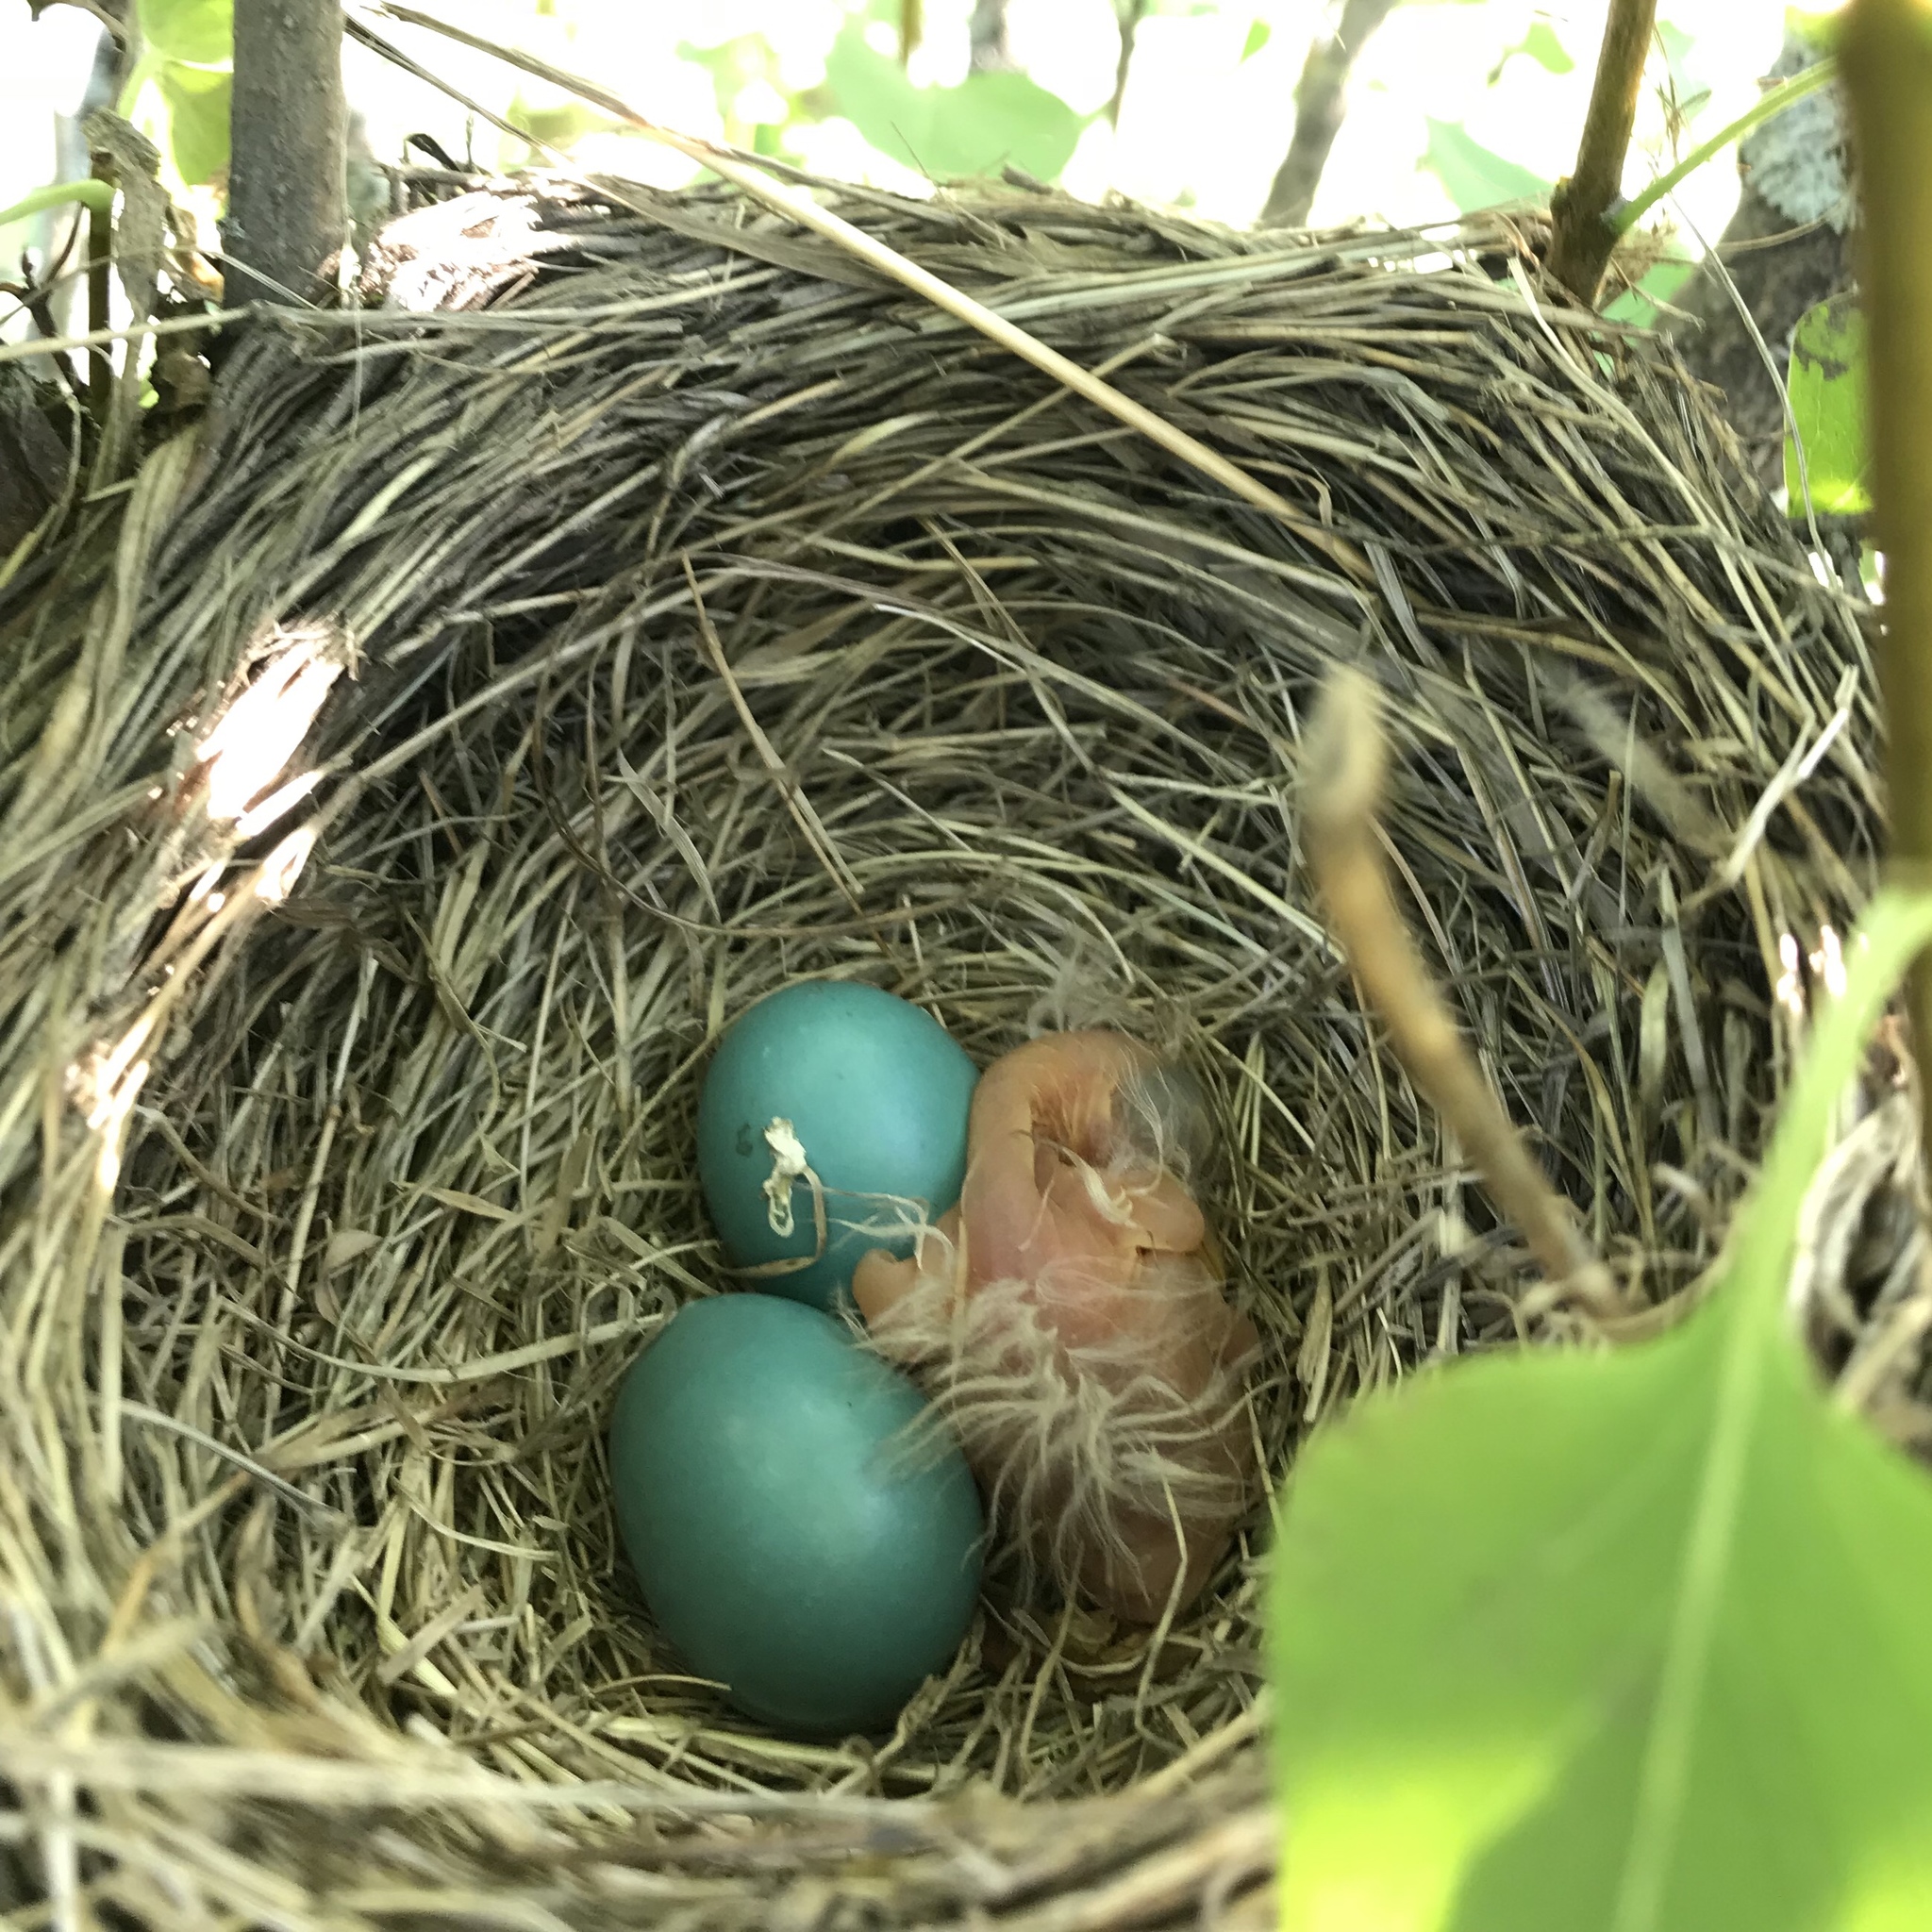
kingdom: Animalia
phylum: Chordata
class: Aves
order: Passeriformes
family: Turdidae
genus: Turdus
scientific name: Turdus migratorius
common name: American robin
